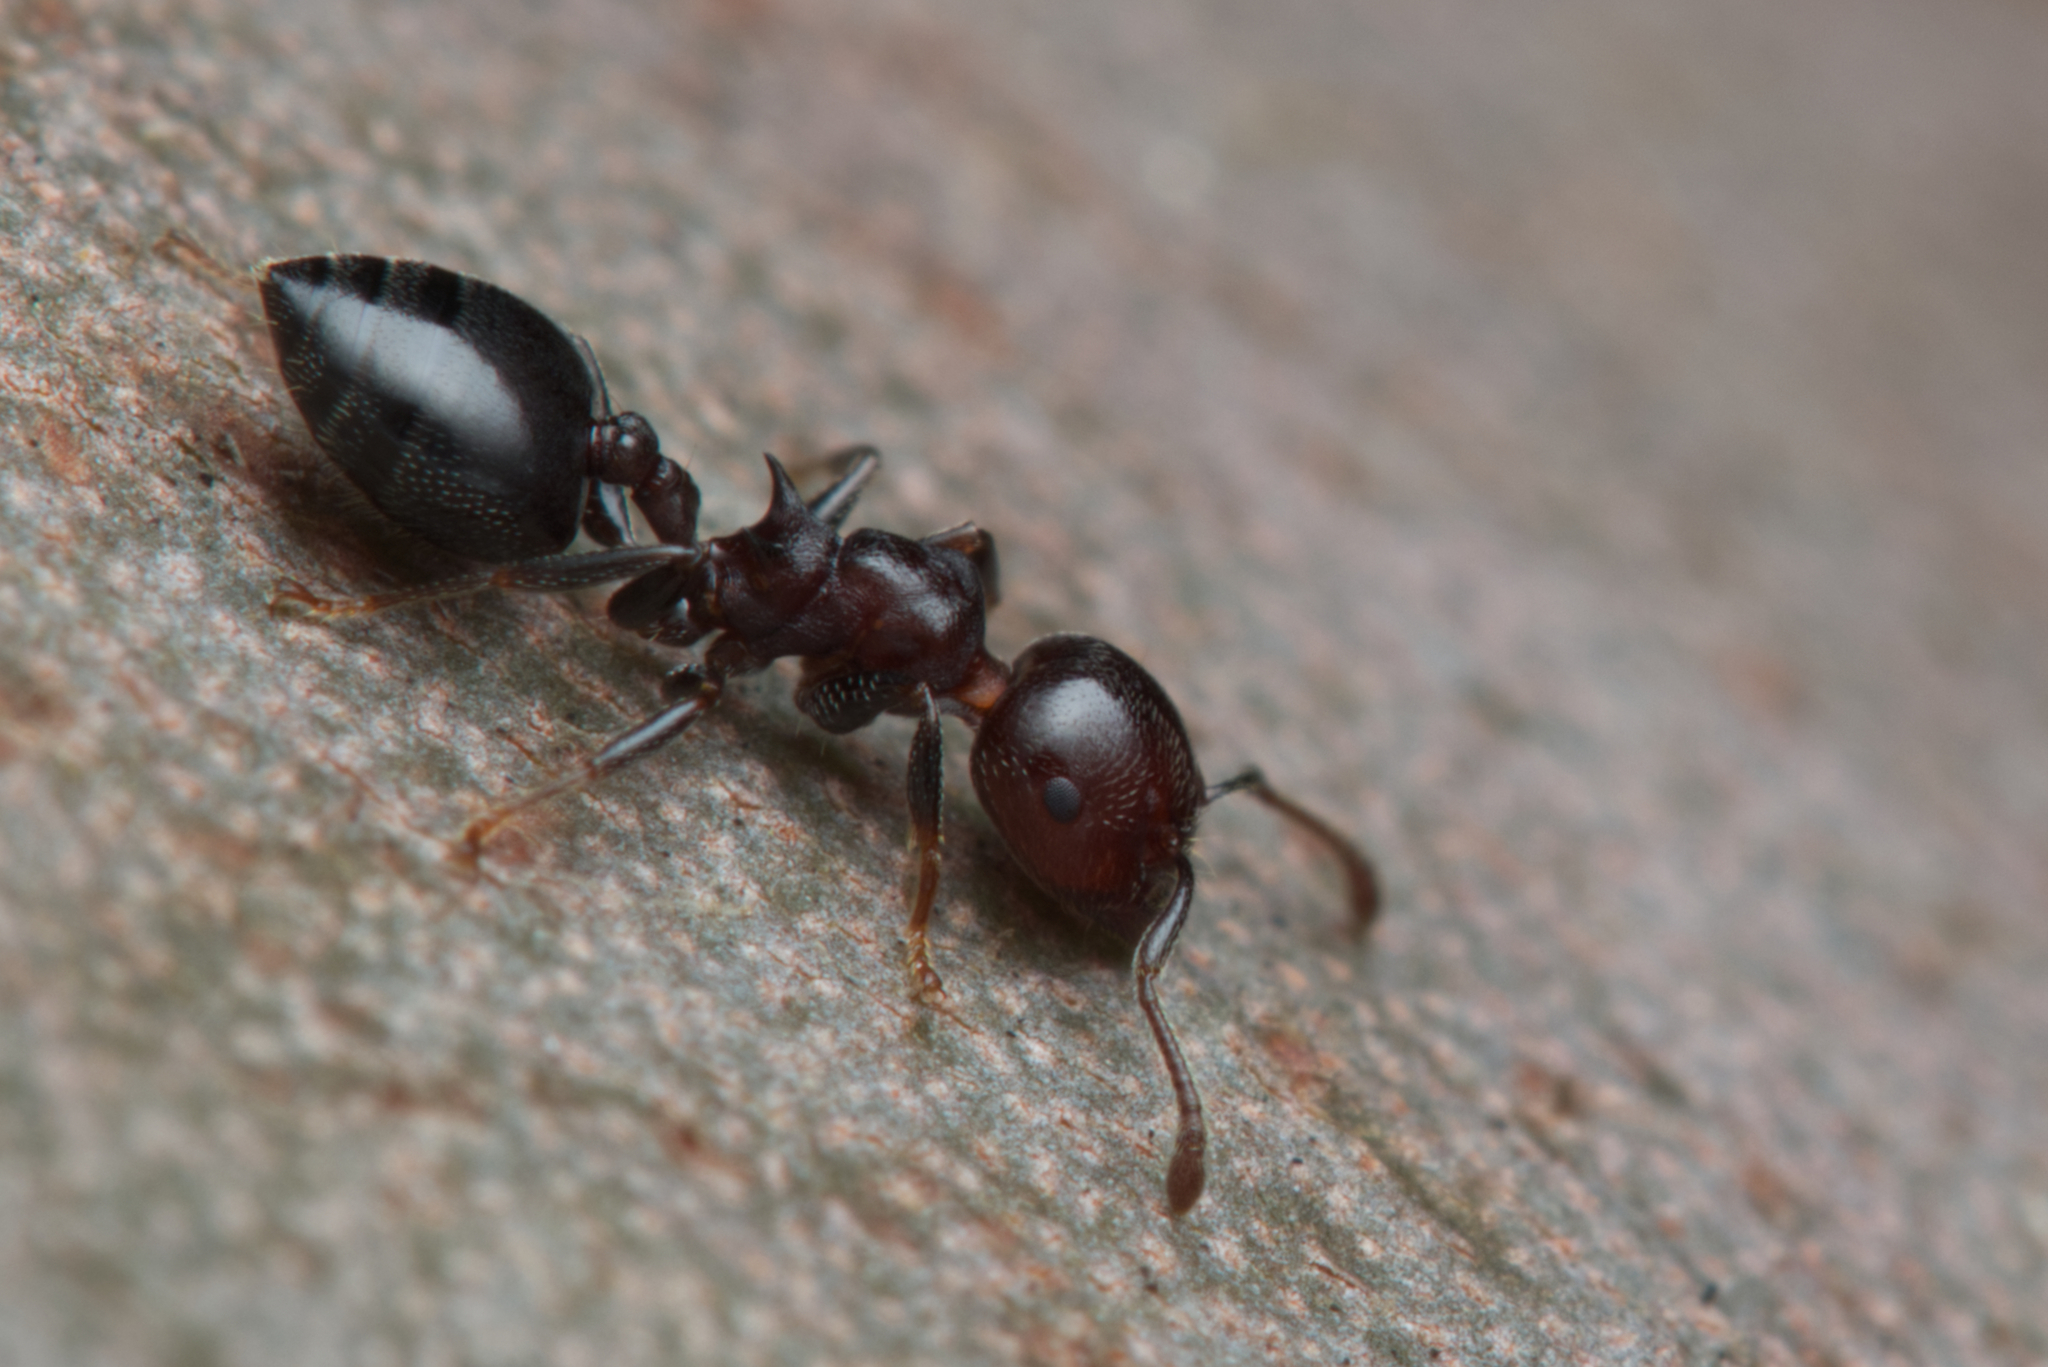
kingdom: Animalia
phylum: Arthropoda
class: Insecta
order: Hymenoptera
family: Formicidae
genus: Crematogaster
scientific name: Crematogaster cornigera
